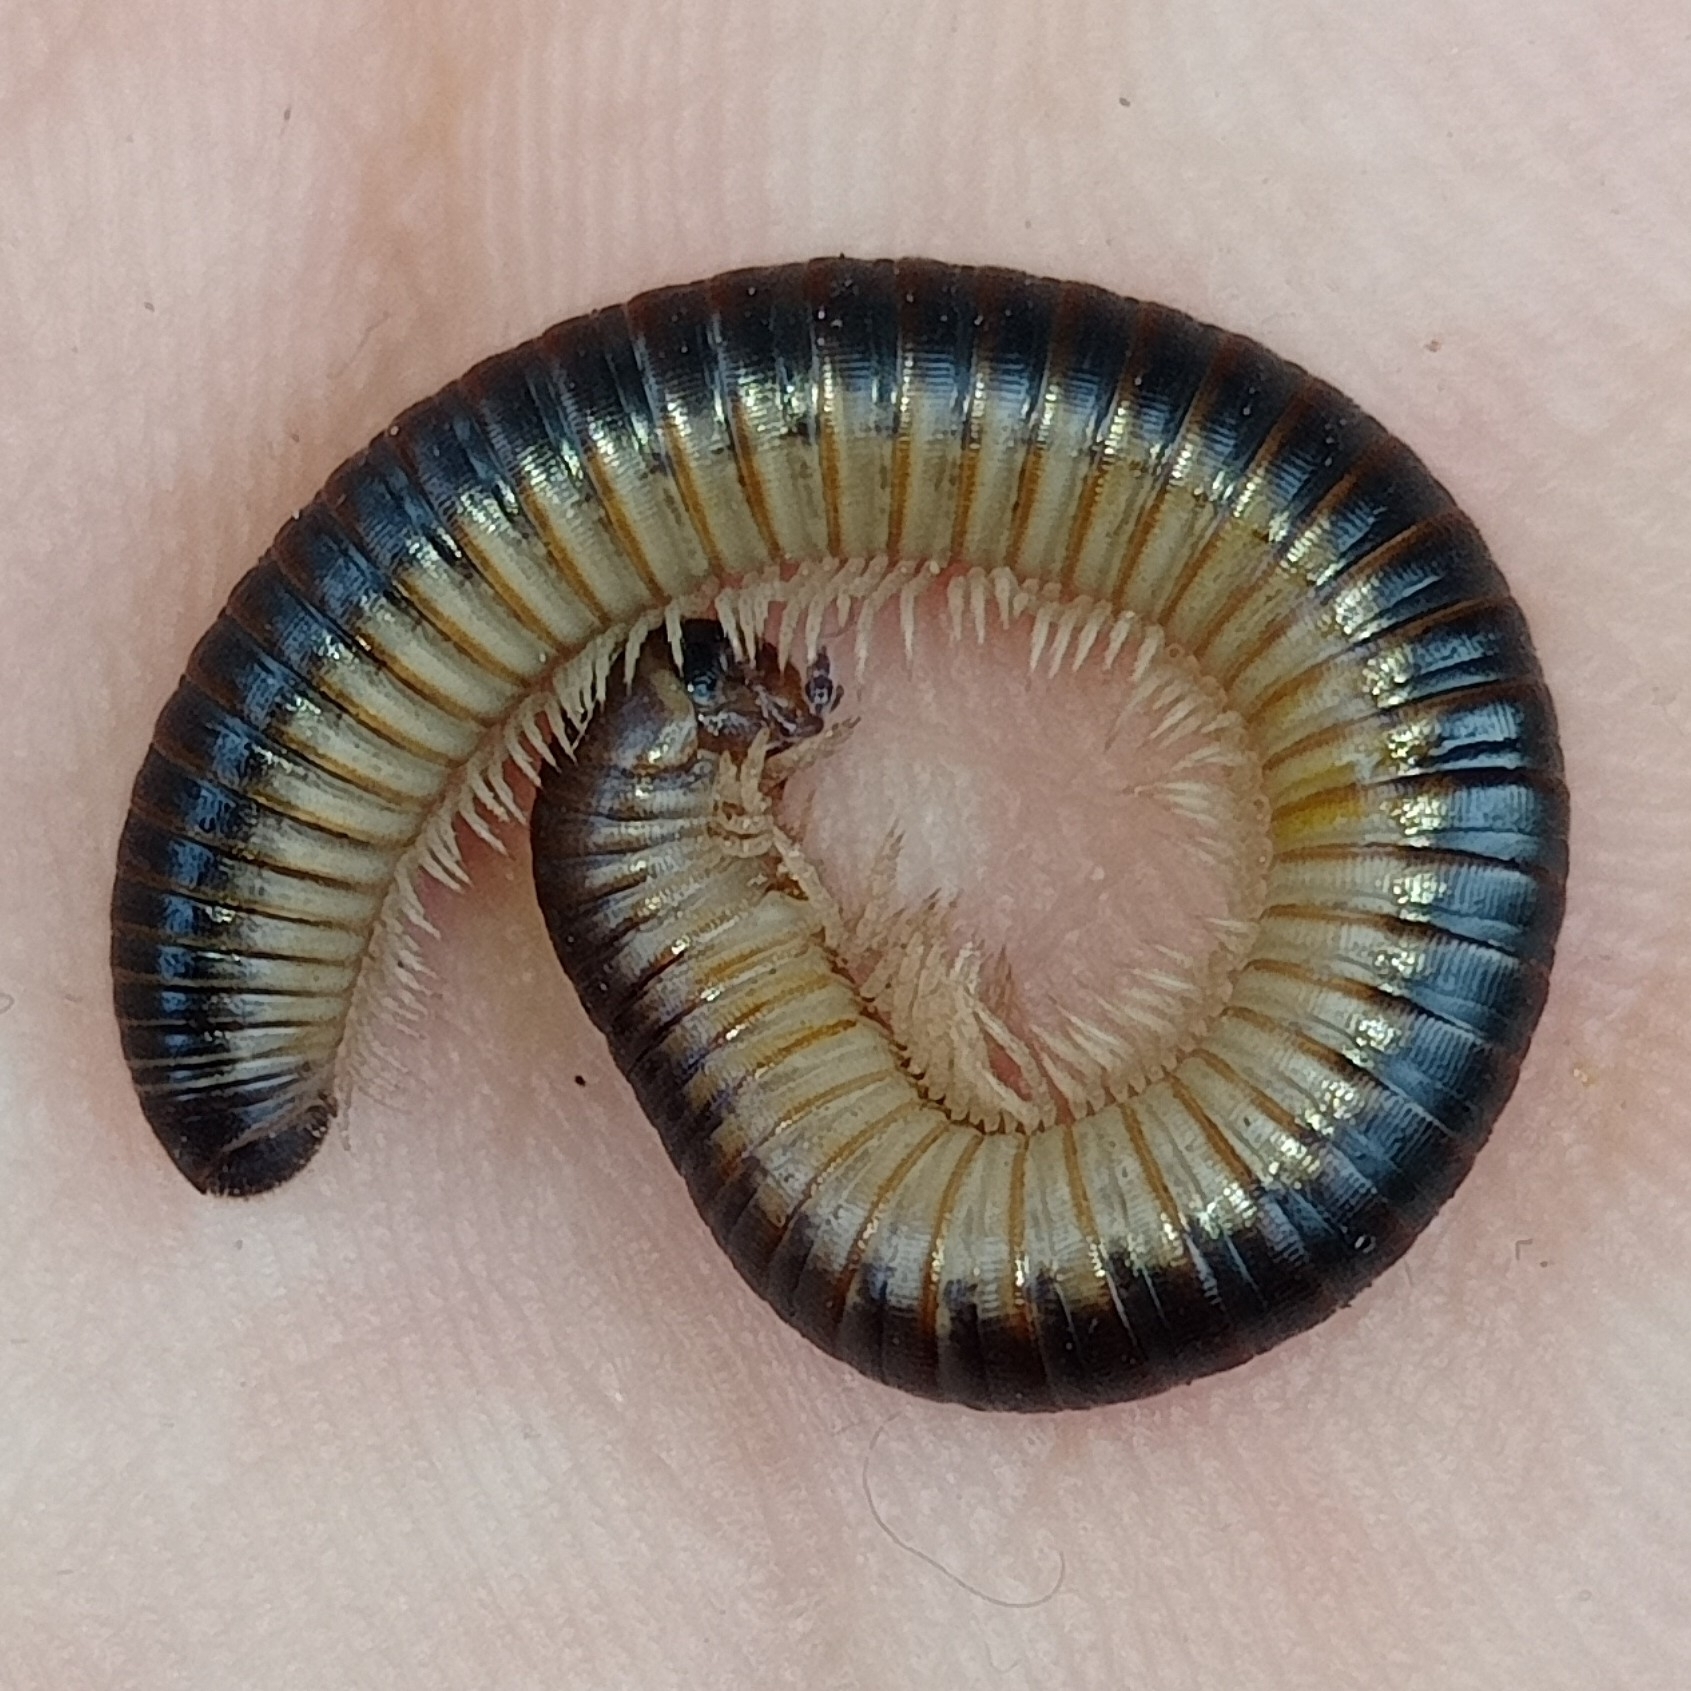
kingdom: Animalia
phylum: Arthropoda
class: Diplopoda
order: Julida
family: Julidae
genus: Pachyiulus
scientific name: Pachyiulus flavipes
